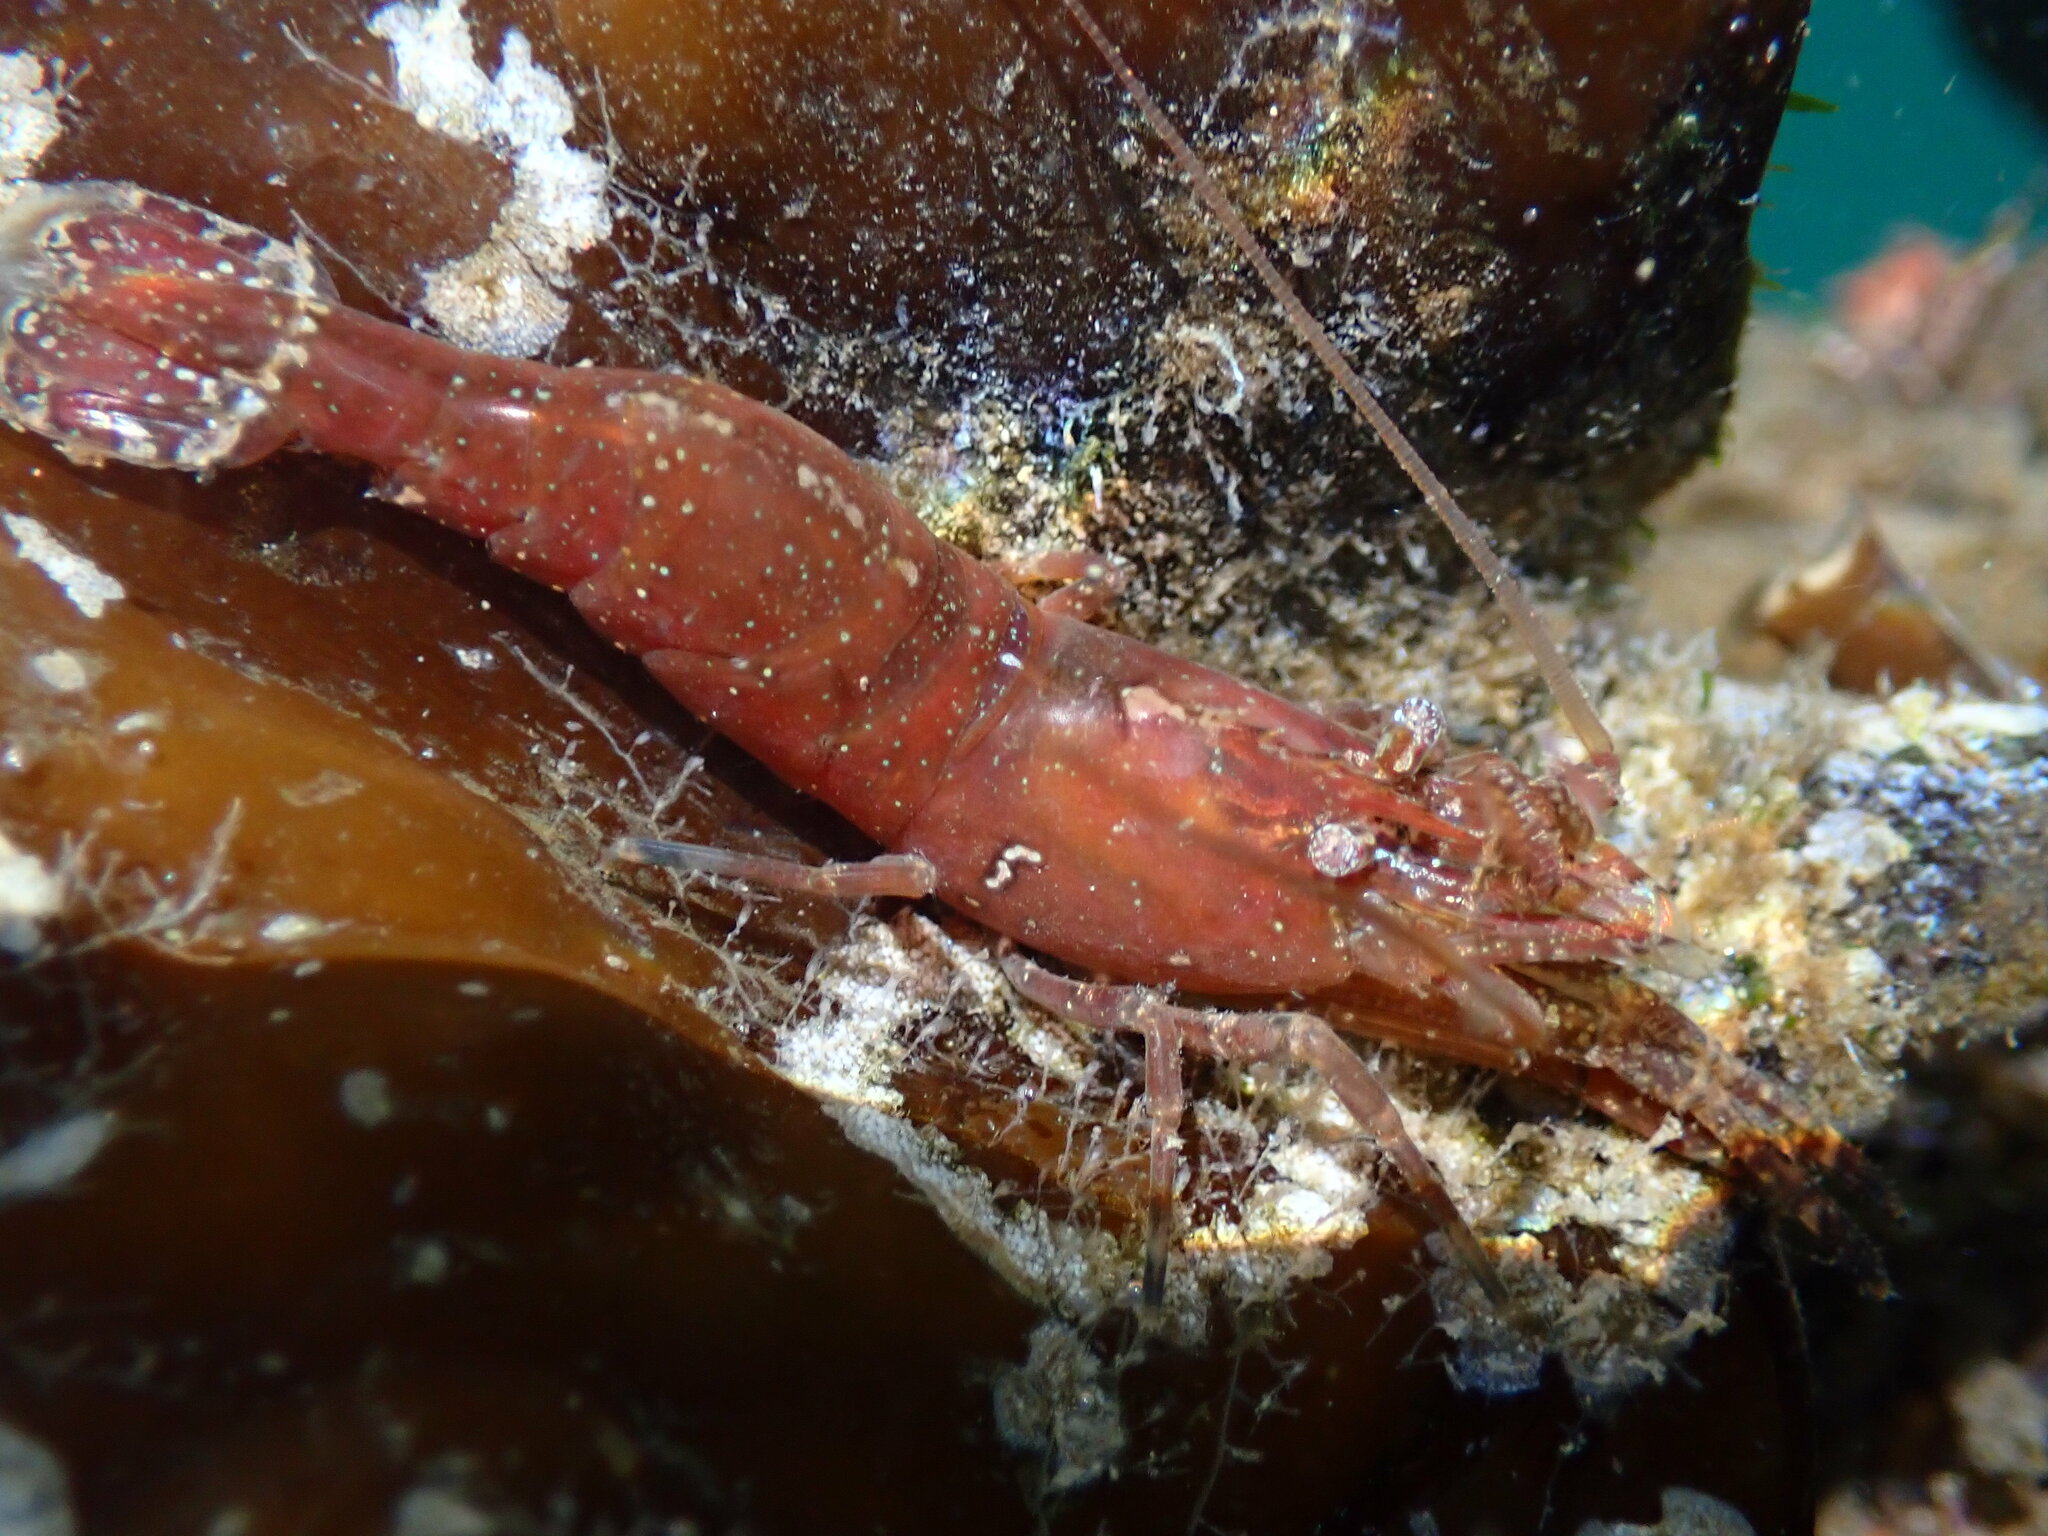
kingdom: Animalia
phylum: Arthropoda
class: Malacostraca
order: Decapoda
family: Thoridae
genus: Heptacarpus
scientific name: Heptacarpus brevirostris
